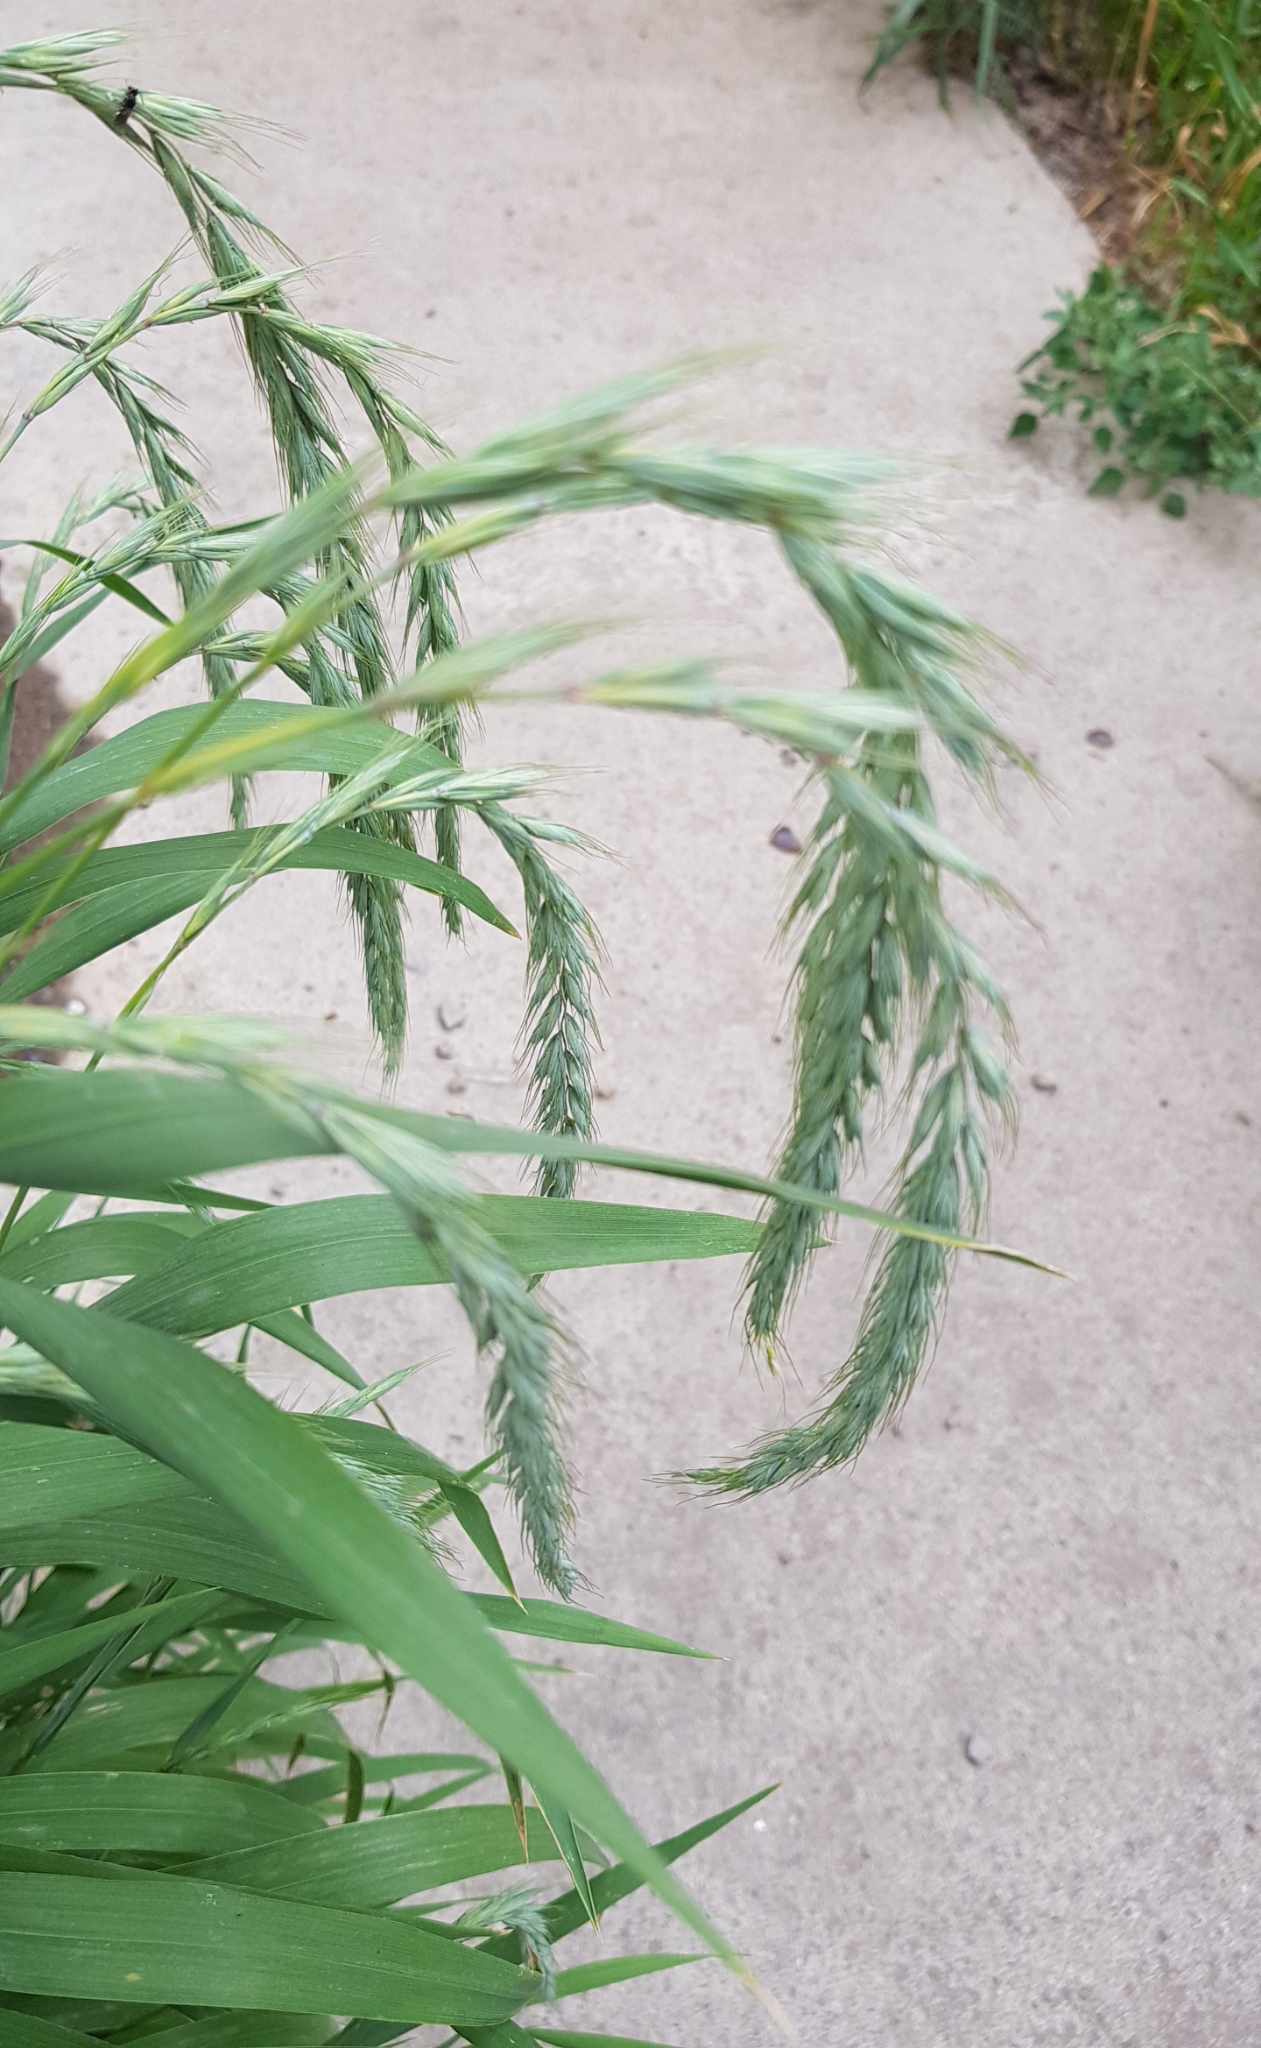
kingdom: Plantae
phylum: Tracheophyta
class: Liliopsida
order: Poales
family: Poaceae
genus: Elymus
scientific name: Elymus sibiricus
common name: Siberian wildrye
